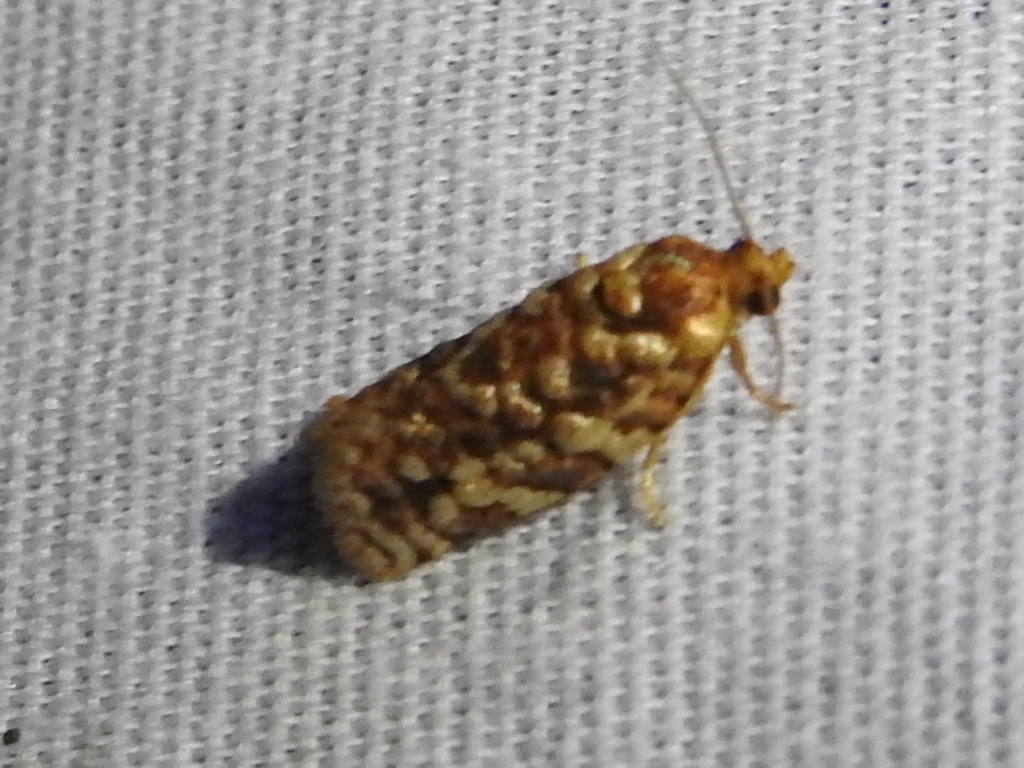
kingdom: Animalia
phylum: Arthropoda
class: Insecta
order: Lepidoptera
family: Tortricidae
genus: Choristoneura
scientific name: Choristoneura houstonana
